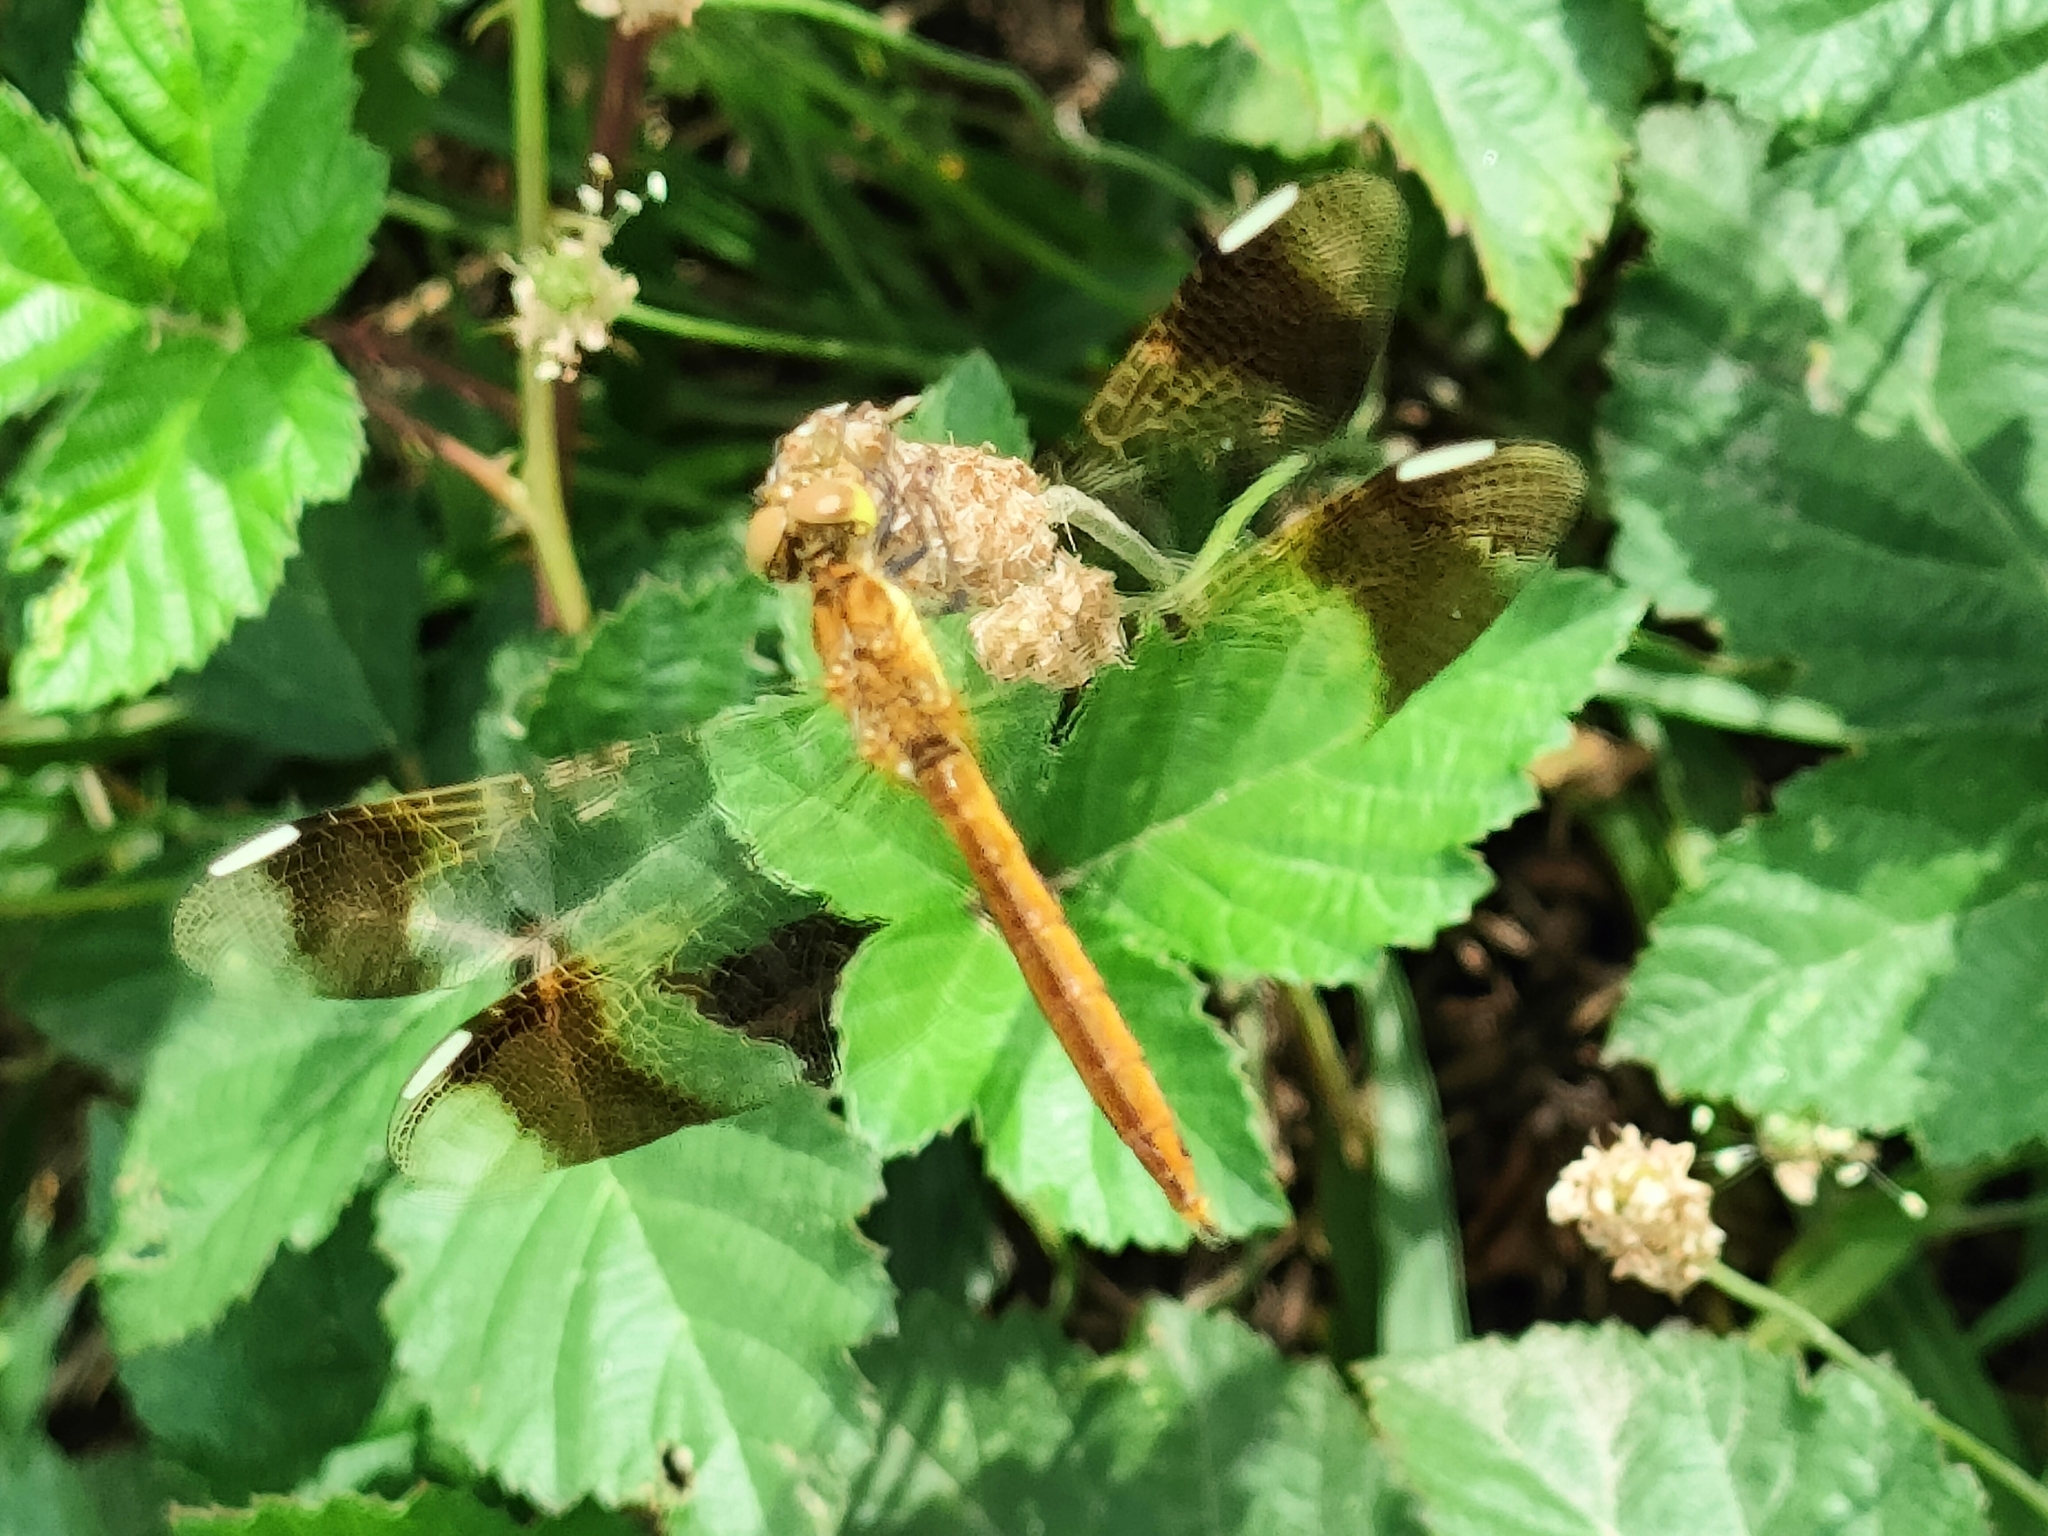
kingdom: Animalia
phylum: Arthropoda
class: Insecta
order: Odonata
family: Libellulidae
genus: Sympetrum
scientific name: Sympetrum pedemontanum
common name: Banded darter
